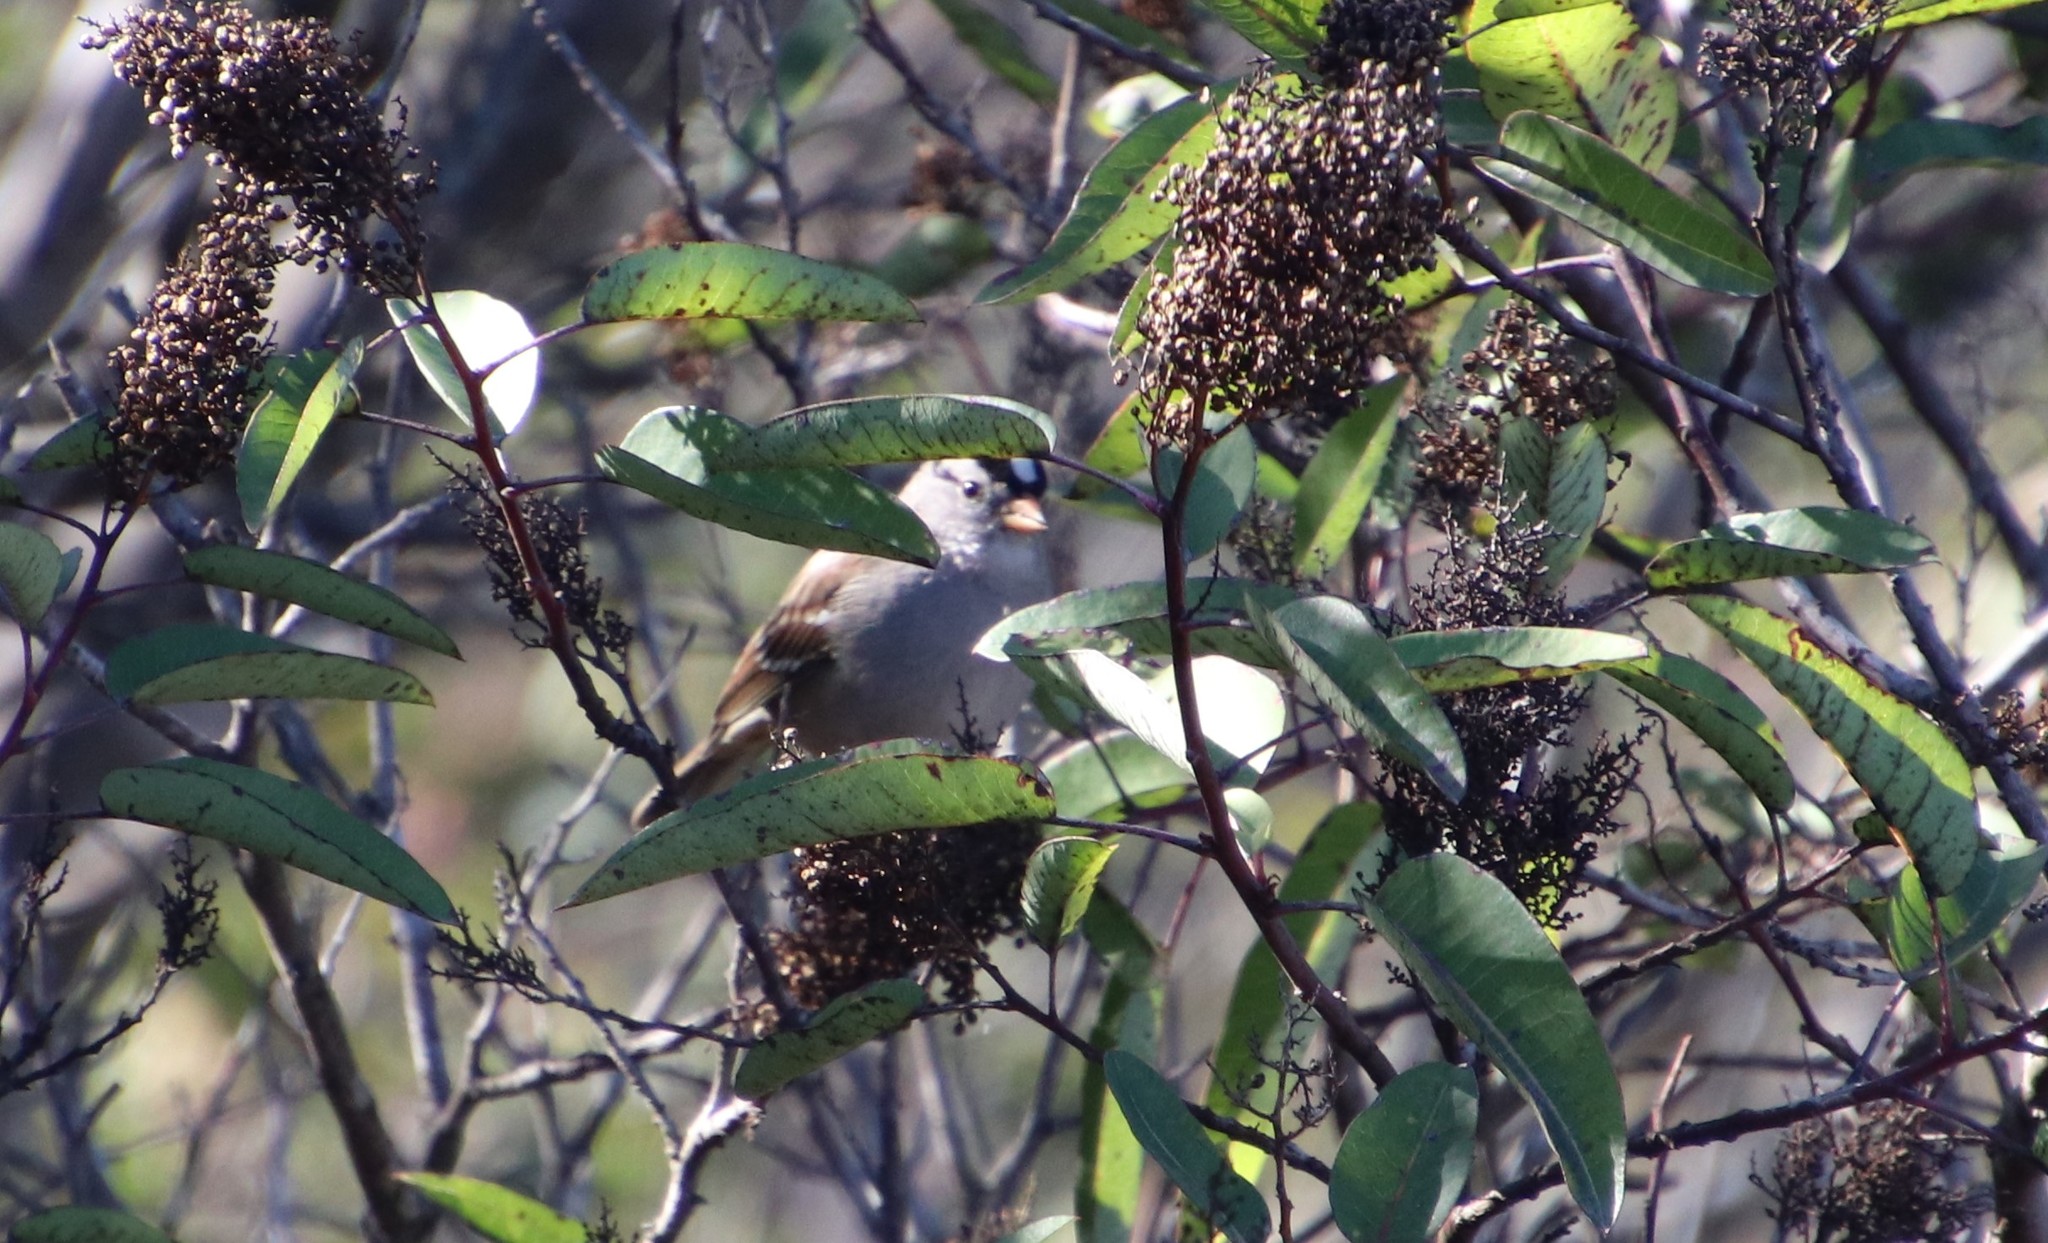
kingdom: Animalia
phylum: Chordata
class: Aves
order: Passeriformes
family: Passerellidae
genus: Zonotrichia
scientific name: Zonotrichia leucophrys
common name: White-crowned sparrow
